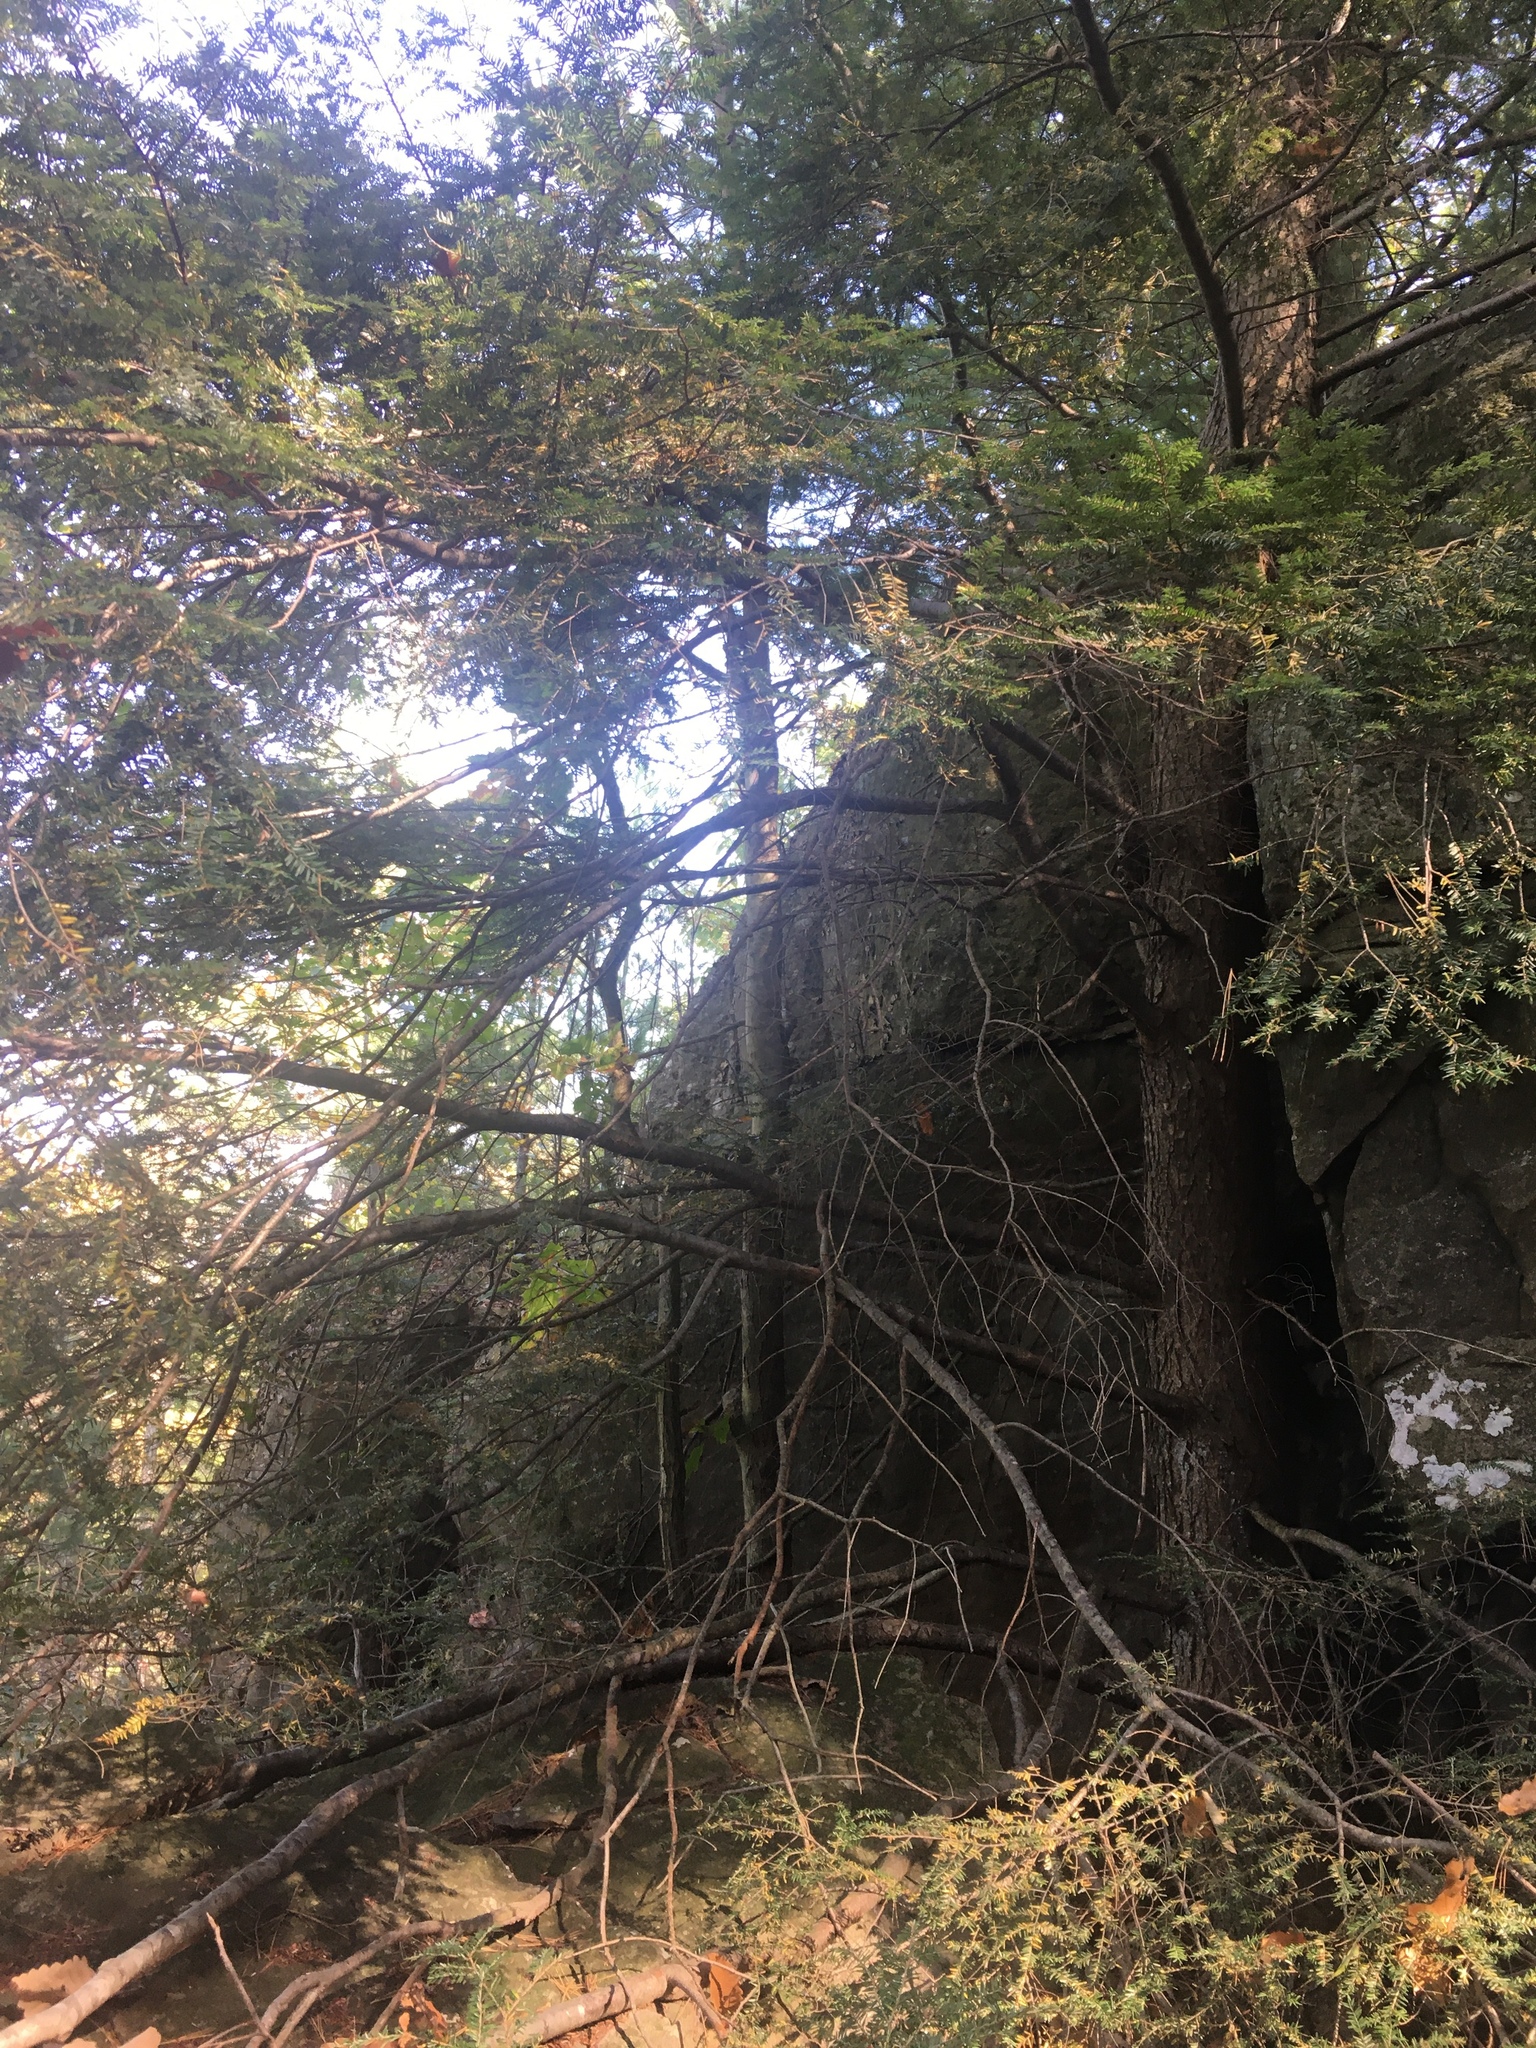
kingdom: Plantae
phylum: Tracheophyta
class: Pinopsida
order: Pinales
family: Pinaceae
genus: Tsuga
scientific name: Tsuga canadensis
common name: Eastern hemlock
